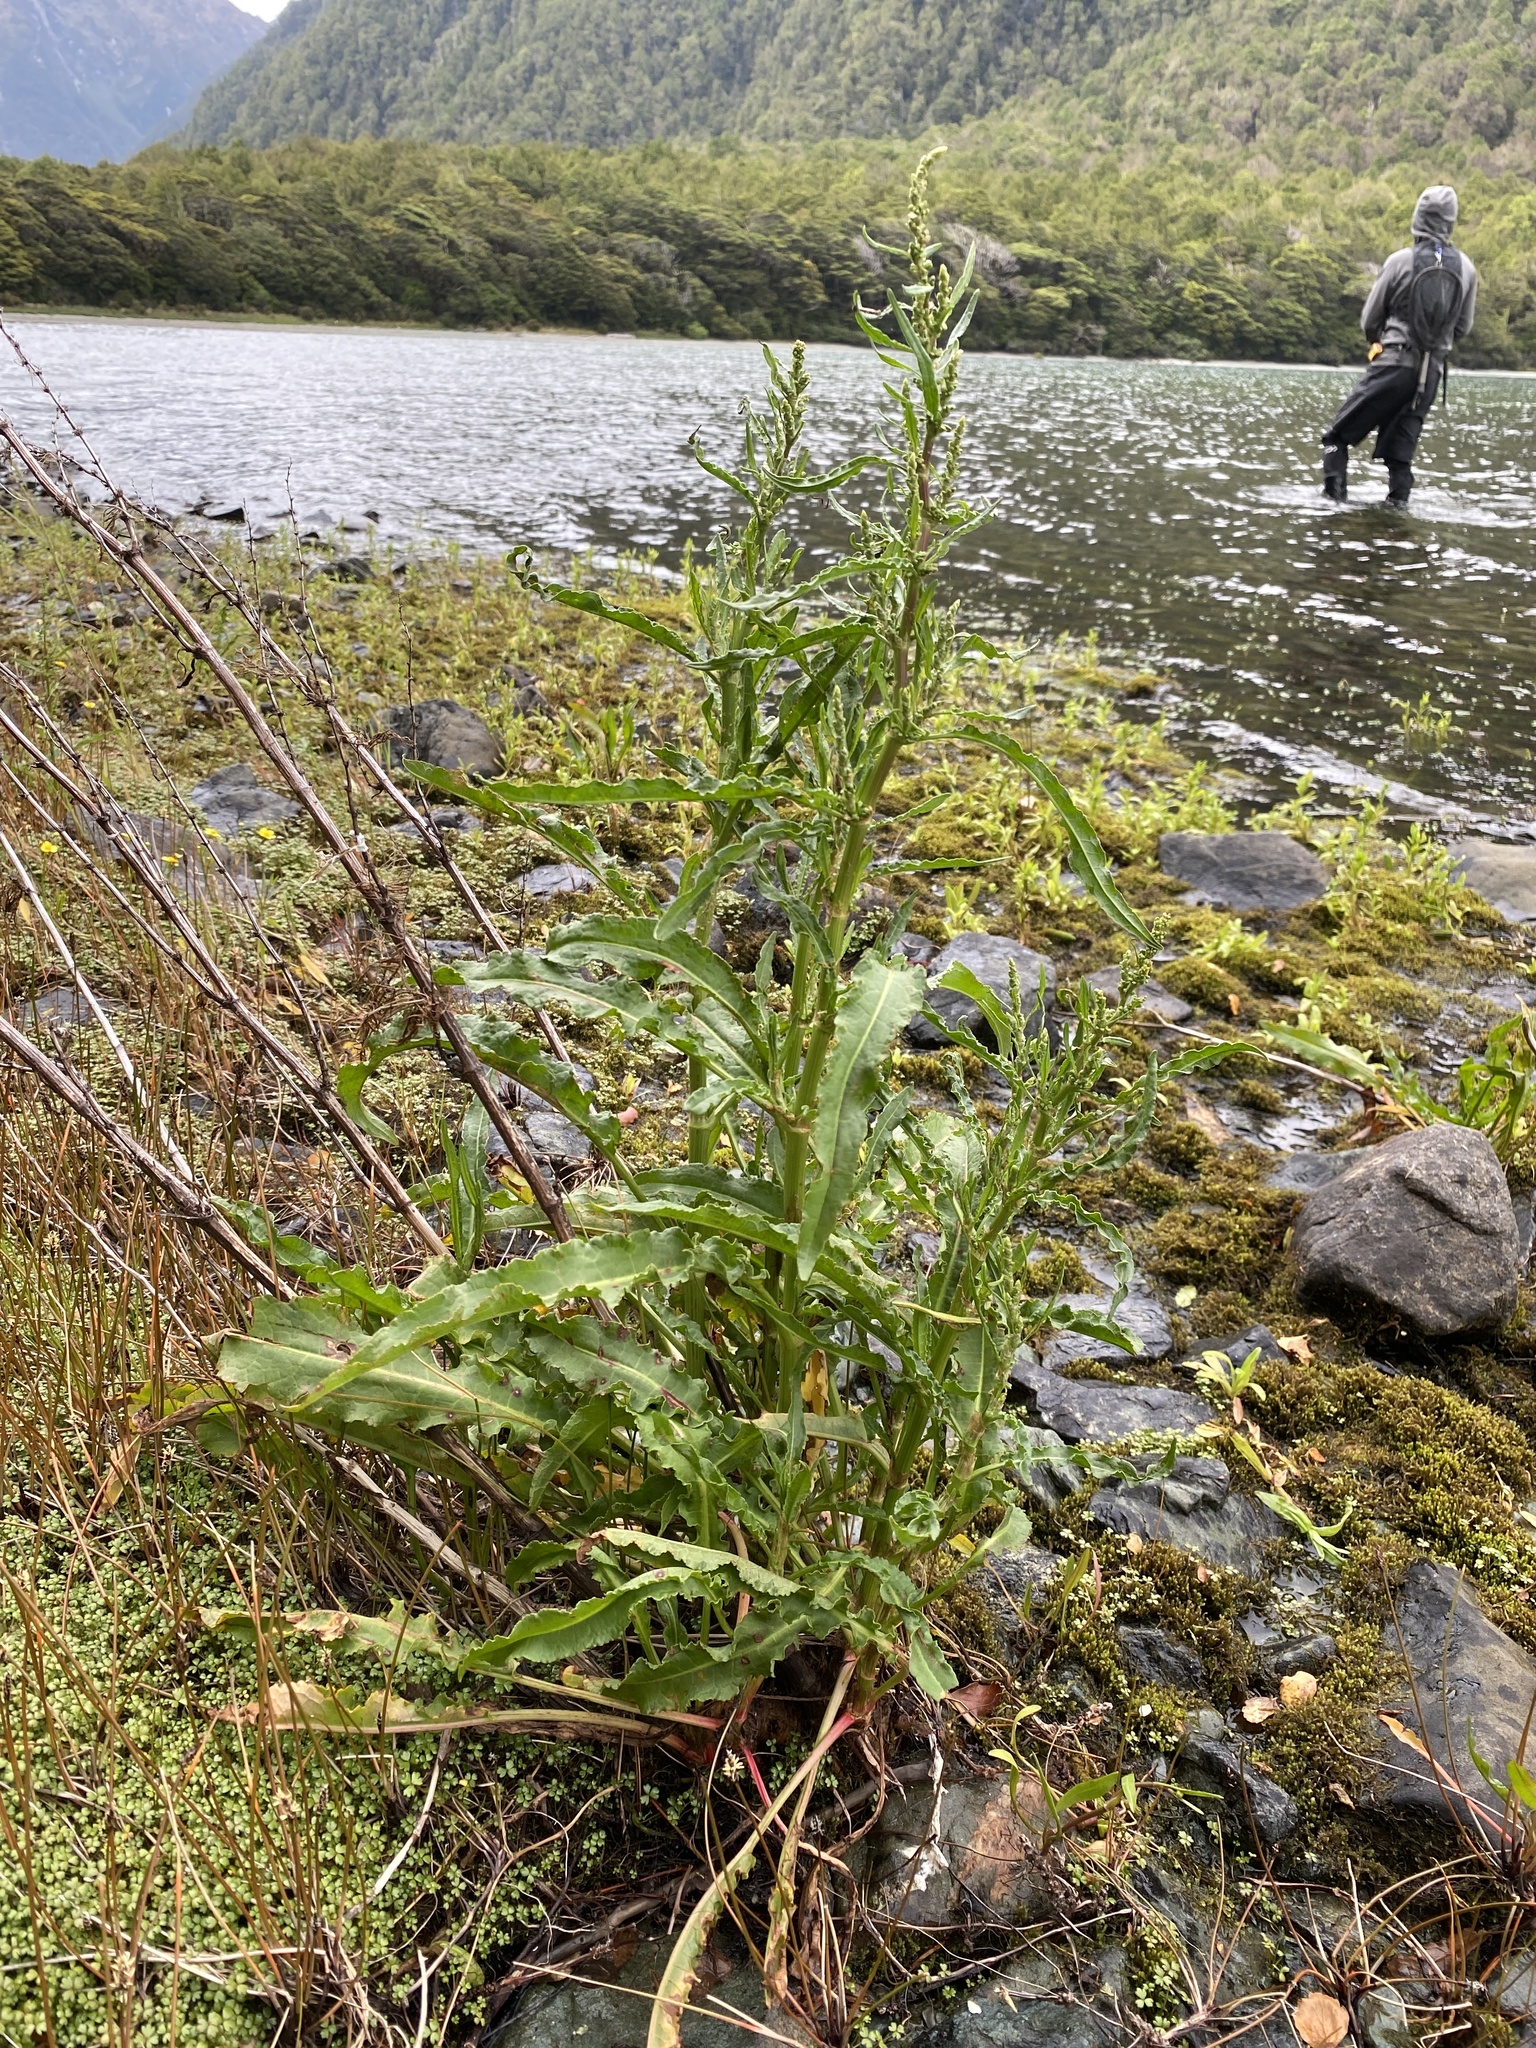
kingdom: Plantae
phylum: Tracheophyta
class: Magnoliopsida
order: Caryophyllales
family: Polygonaceae
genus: Rumex
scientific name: Rumex crispus
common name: Curled dock
